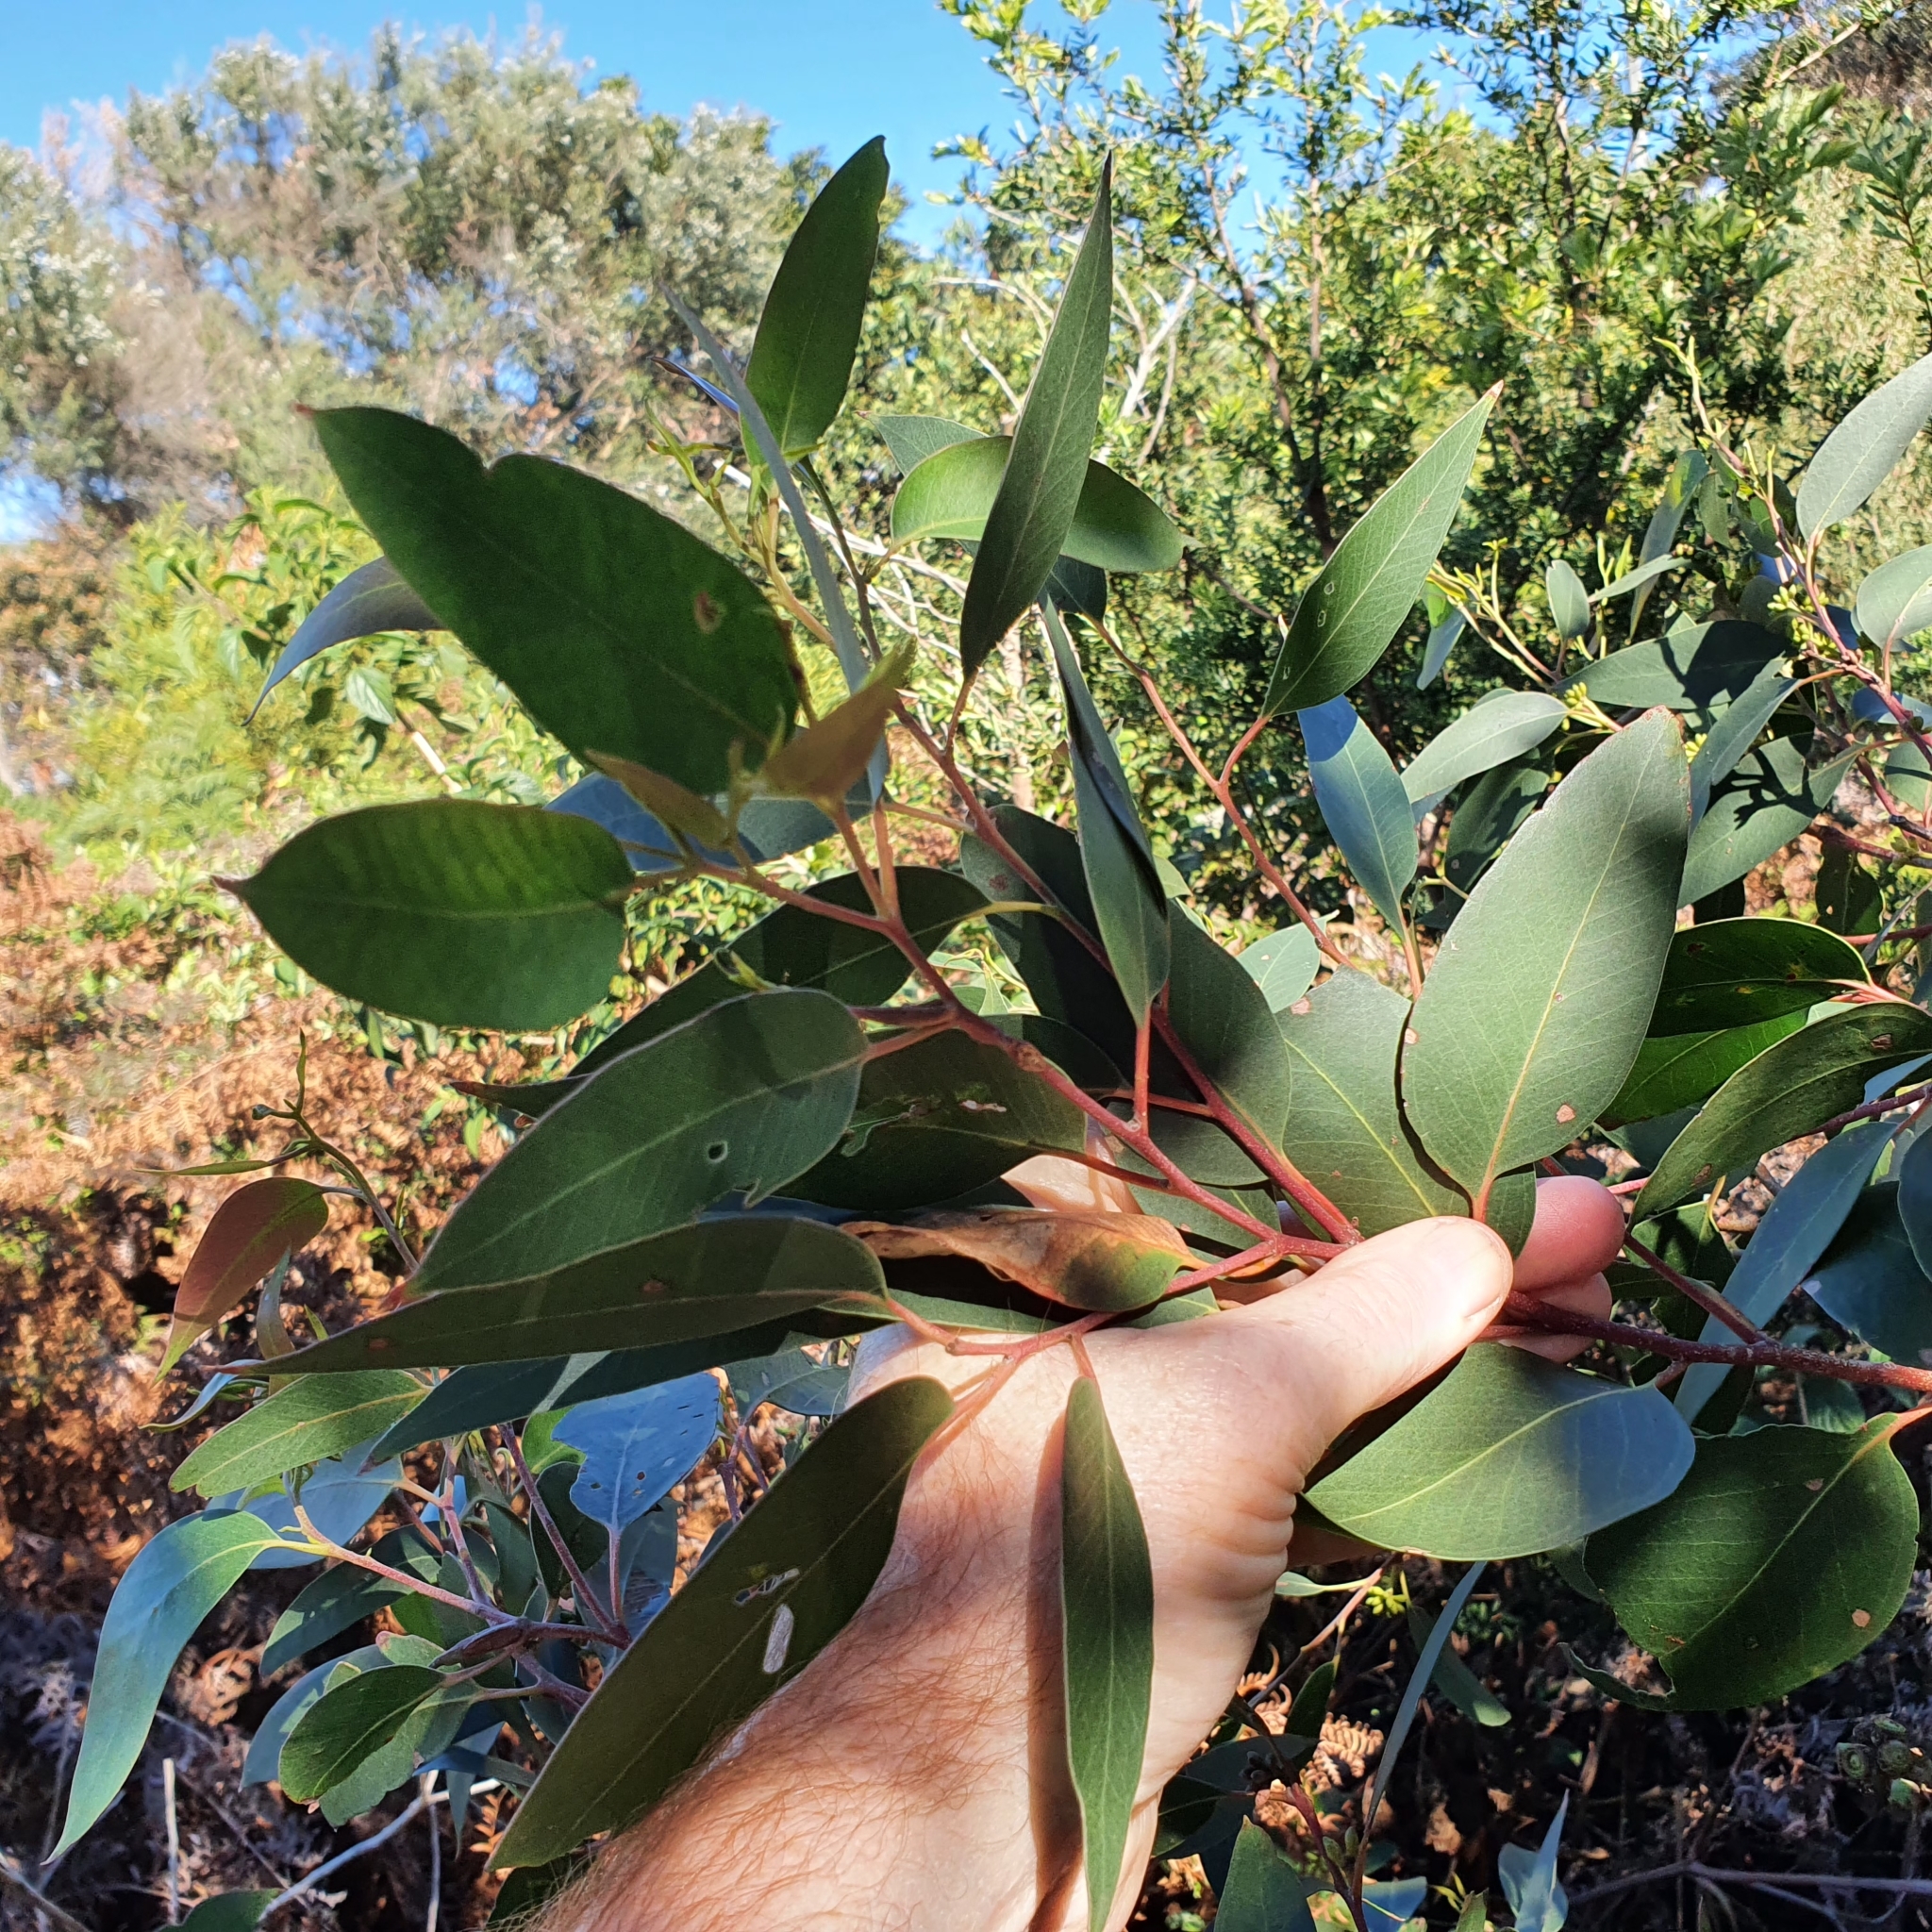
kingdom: Plantae
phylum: Tracheophyta
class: Magnoliopsida
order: Myrtales
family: Myrtaceae
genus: Eucalyptus
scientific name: Eucalyptus capitellata
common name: Brown-stringy-bark
